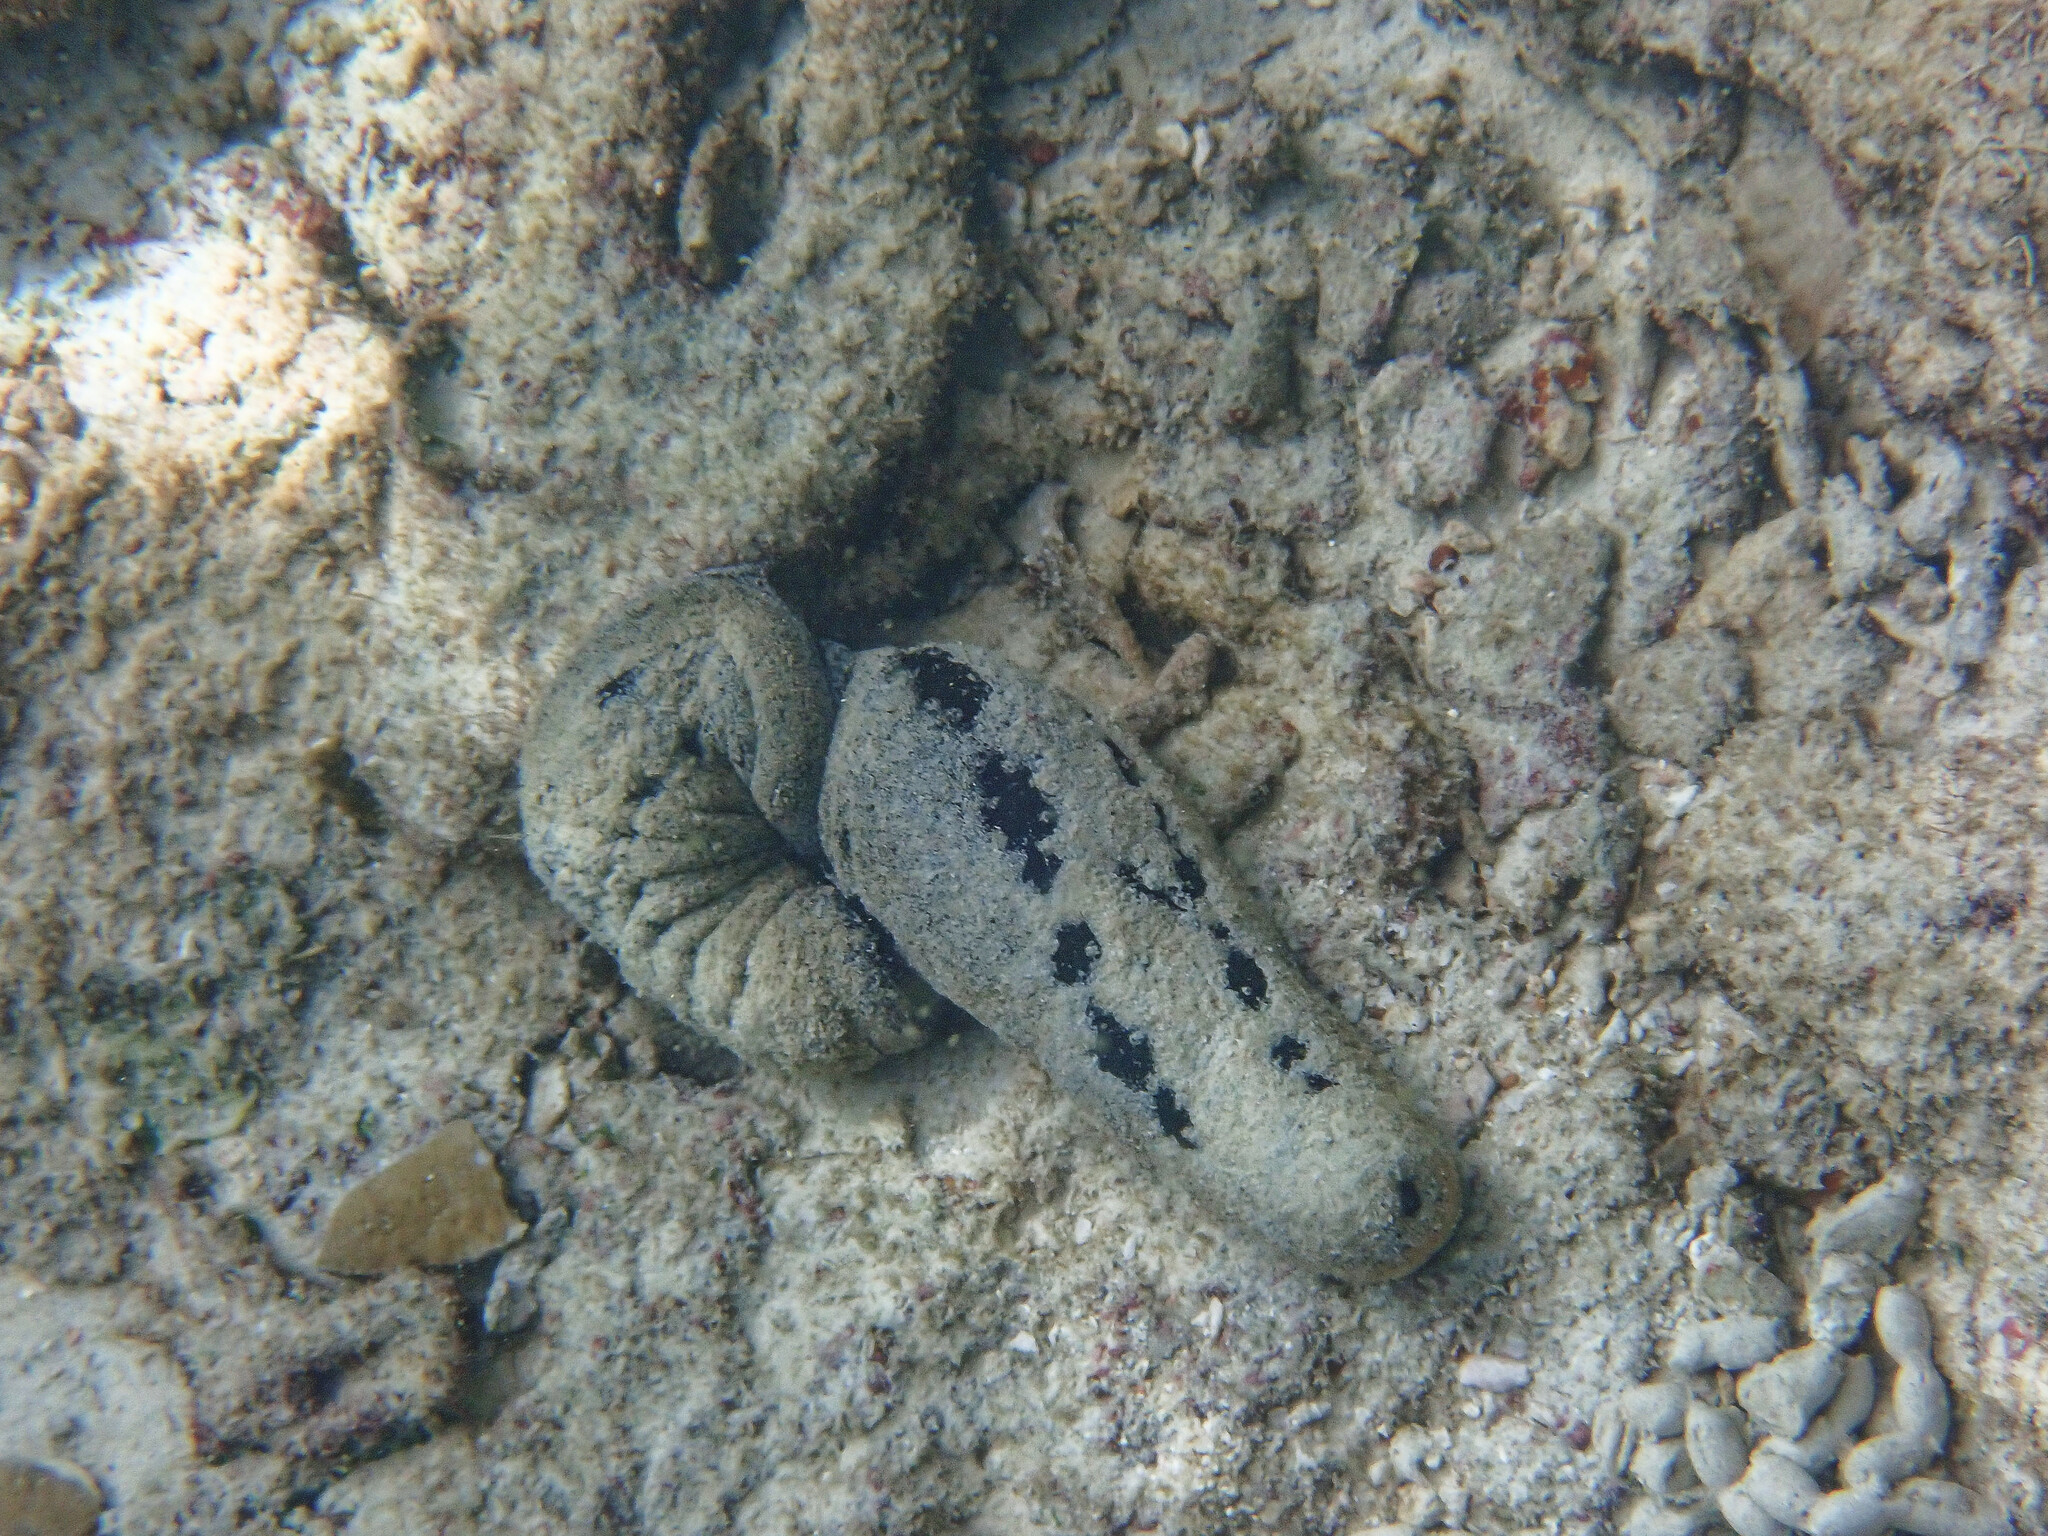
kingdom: Animalia
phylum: Echinodermata
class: Holothuroidea
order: Holothuriida
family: Holothuriidae
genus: Holothuria
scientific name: Holothuria atra
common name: Lollyfish
